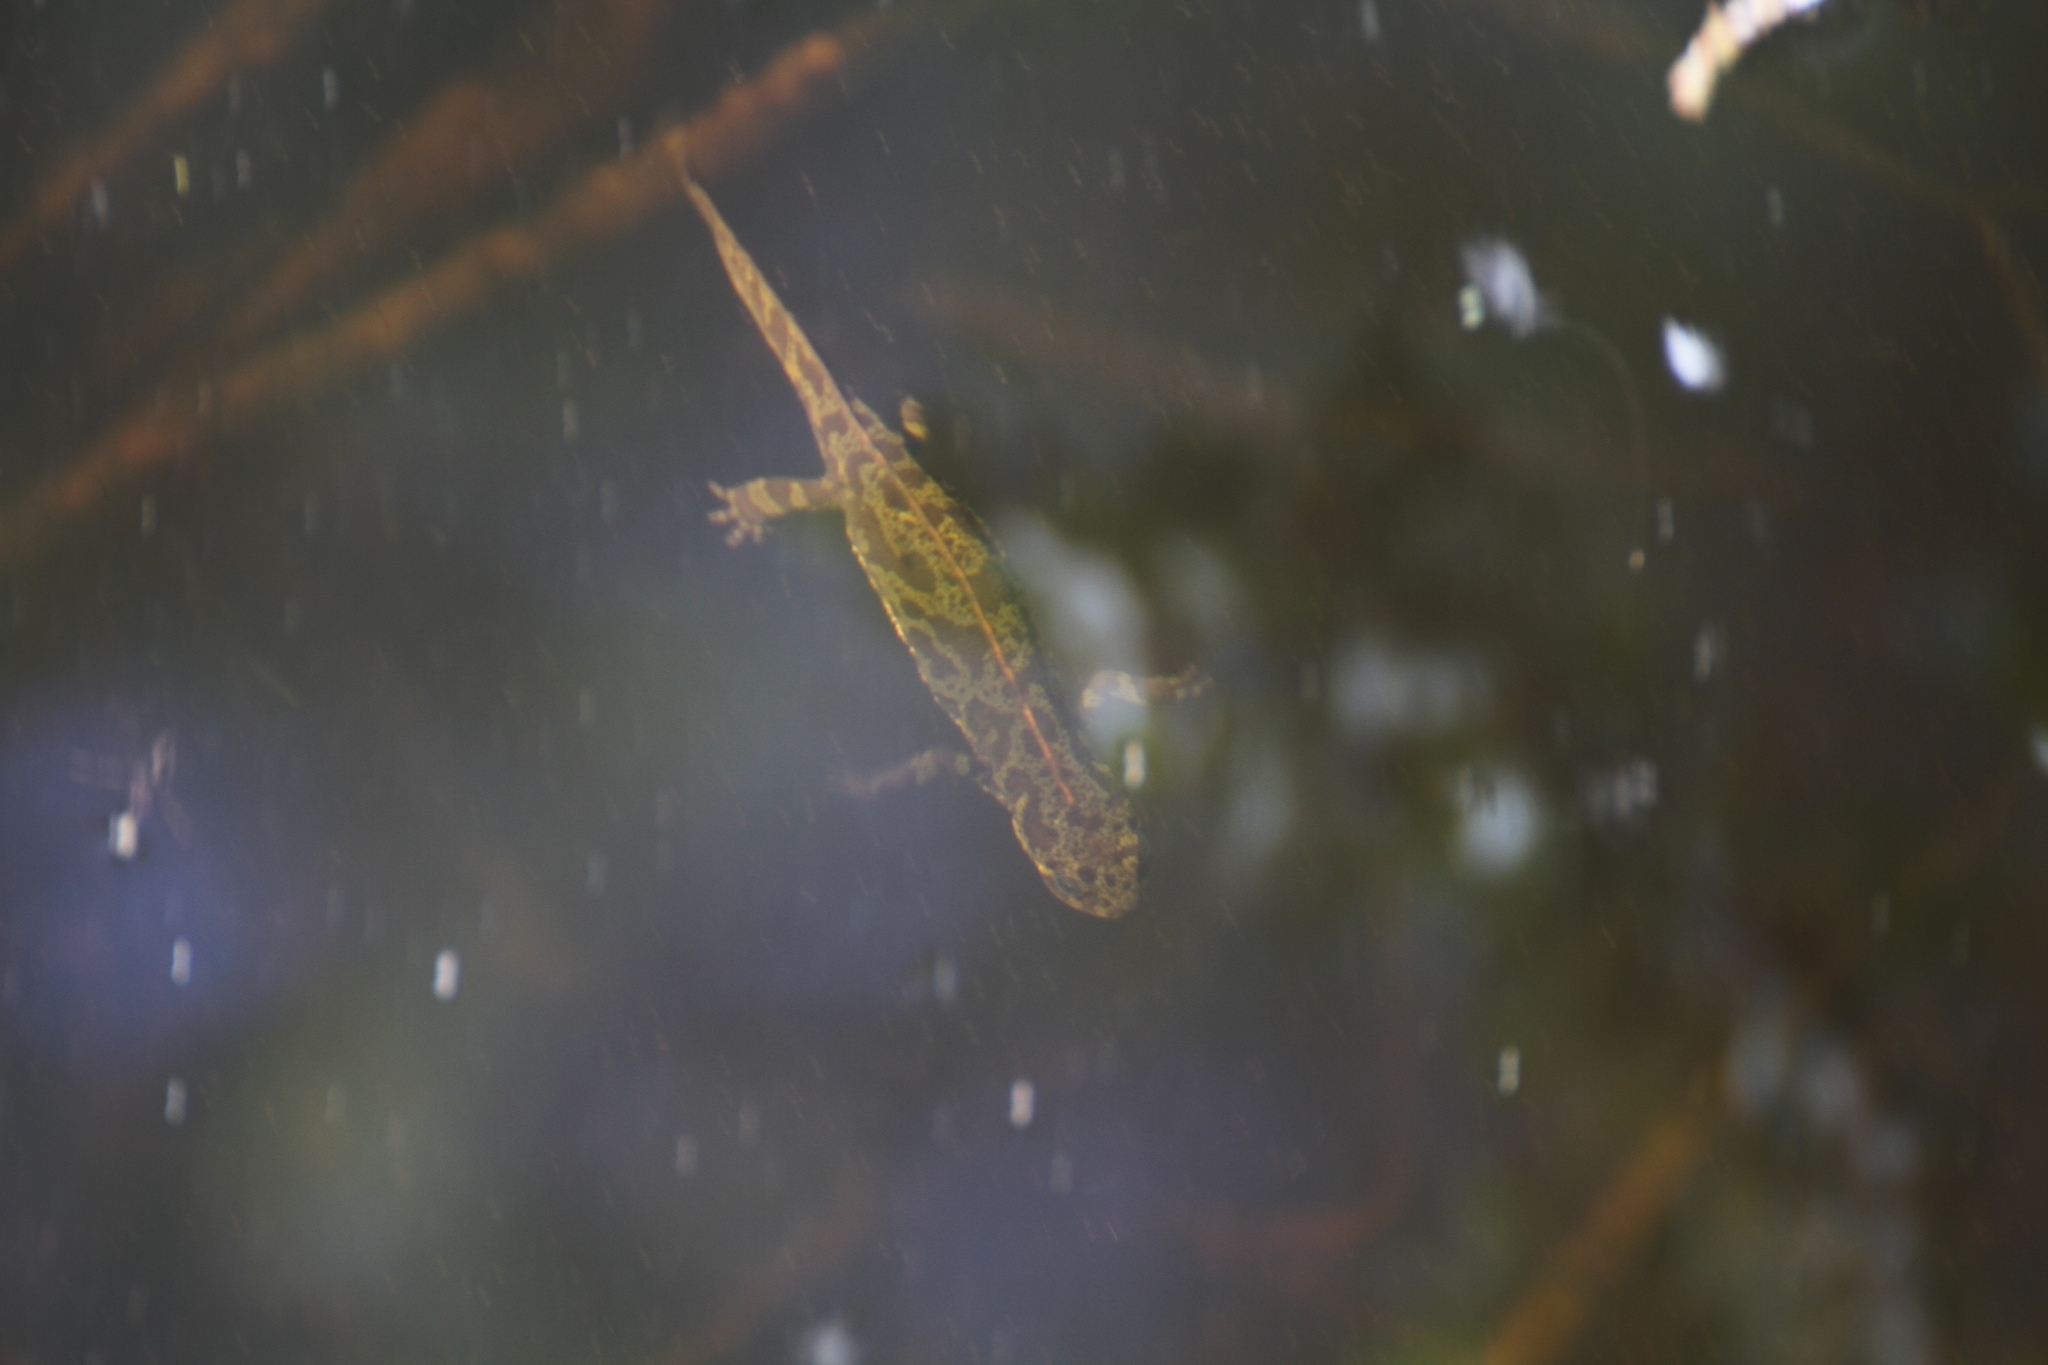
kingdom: Animalia
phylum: Chordata
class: Amphibia
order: Caudata
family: Salamandridae
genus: Triturus
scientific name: Triturus marmoratus
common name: Marbled newt
